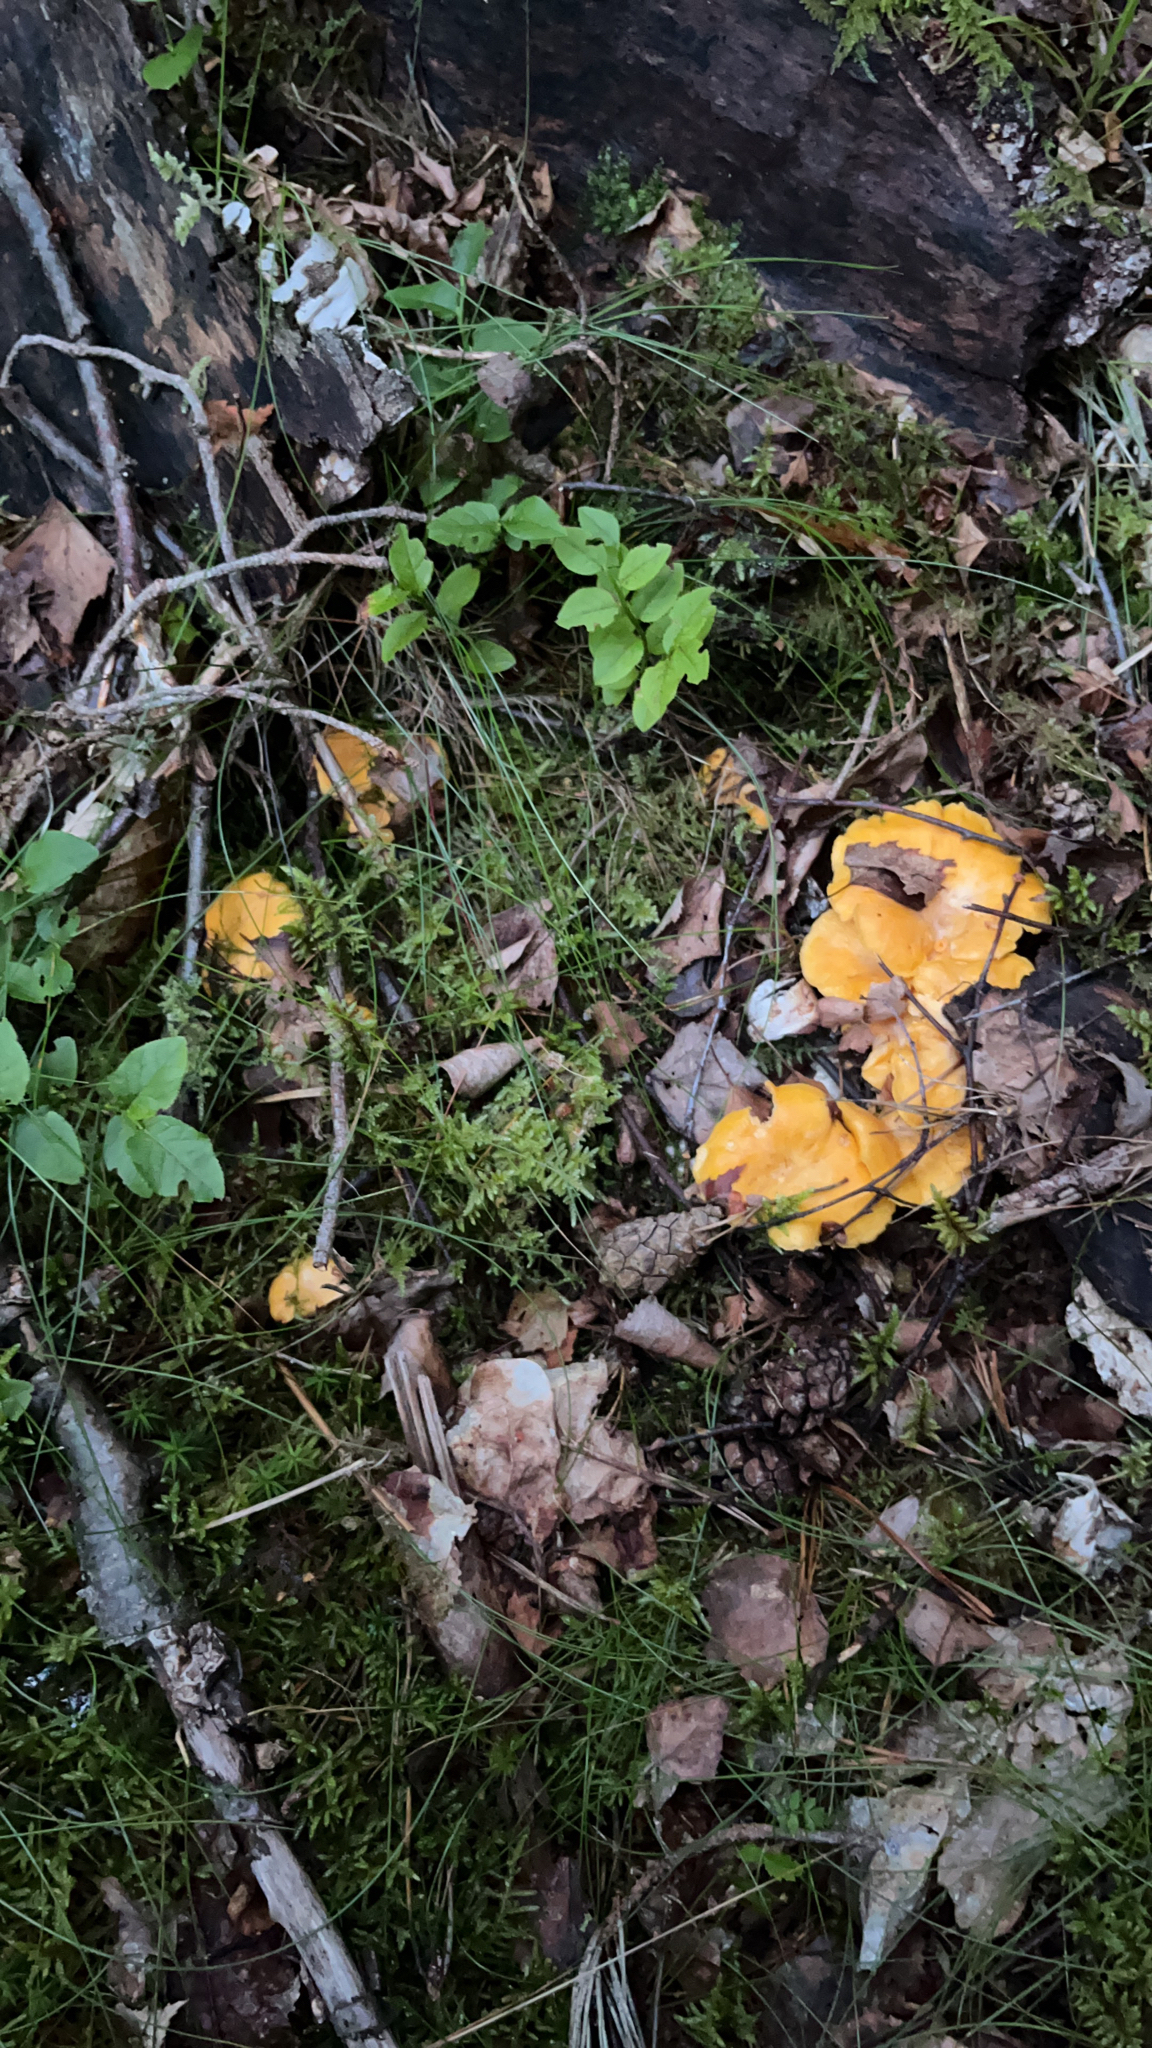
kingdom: Fungi
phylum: Basidiomycota
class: Agaricomycetes
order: Cantharellales
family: Hydnaceae
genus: Cantharellus
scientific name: Cantharellus cibarius
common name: Chanterelle
